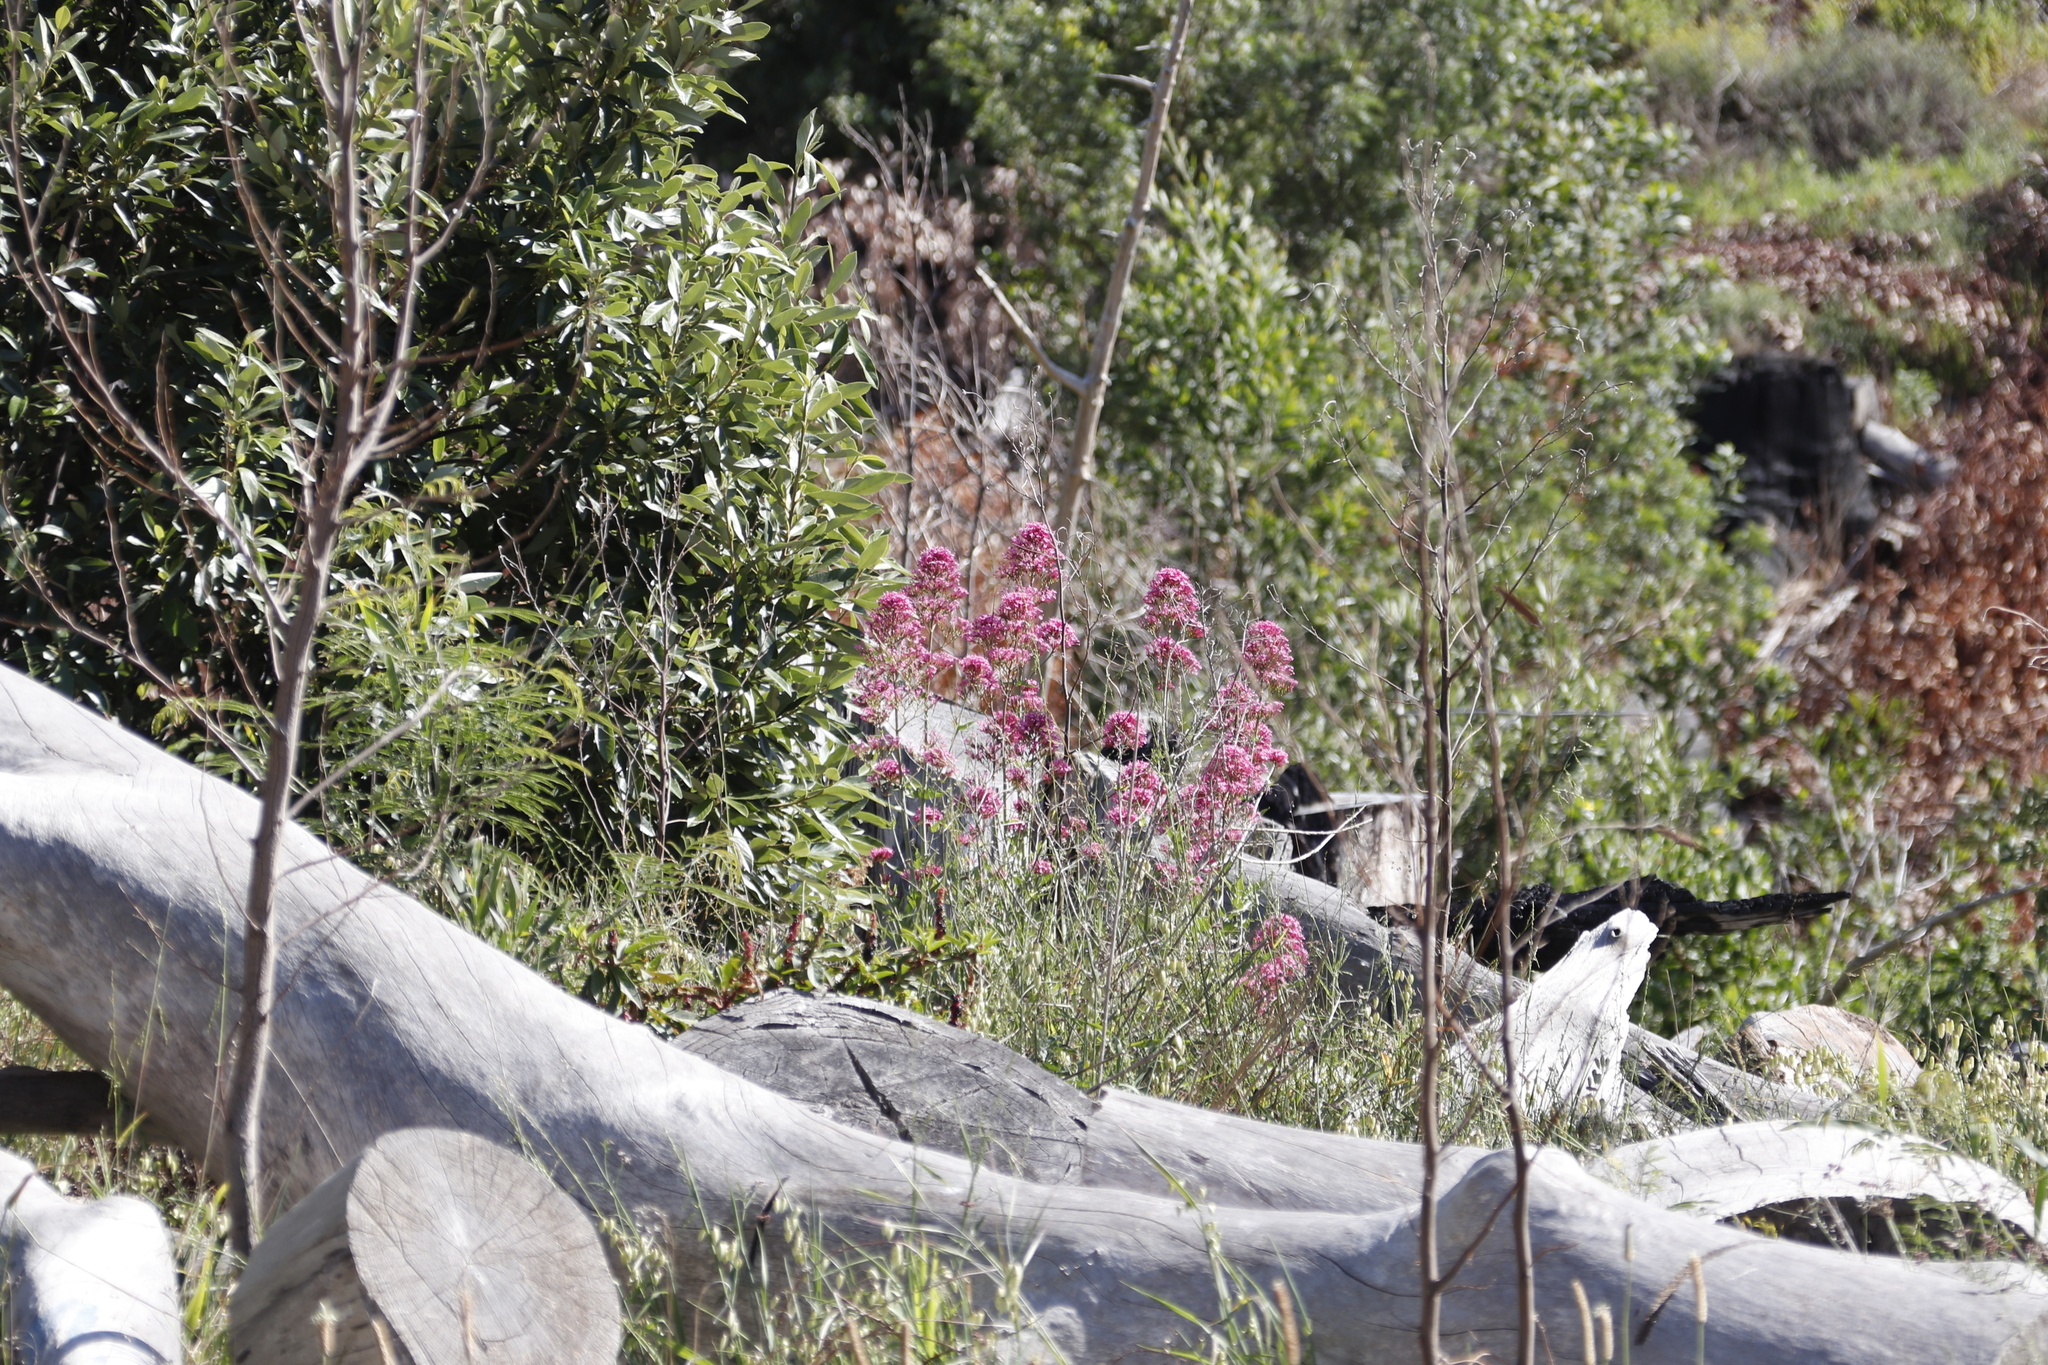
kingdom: Plantae
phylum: Tracheophyta
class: Magnoliopsida
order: Dipsacales
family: Caprifoliaceae
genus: Centranthus
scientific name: Centranthus ruber
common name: Red valerian
